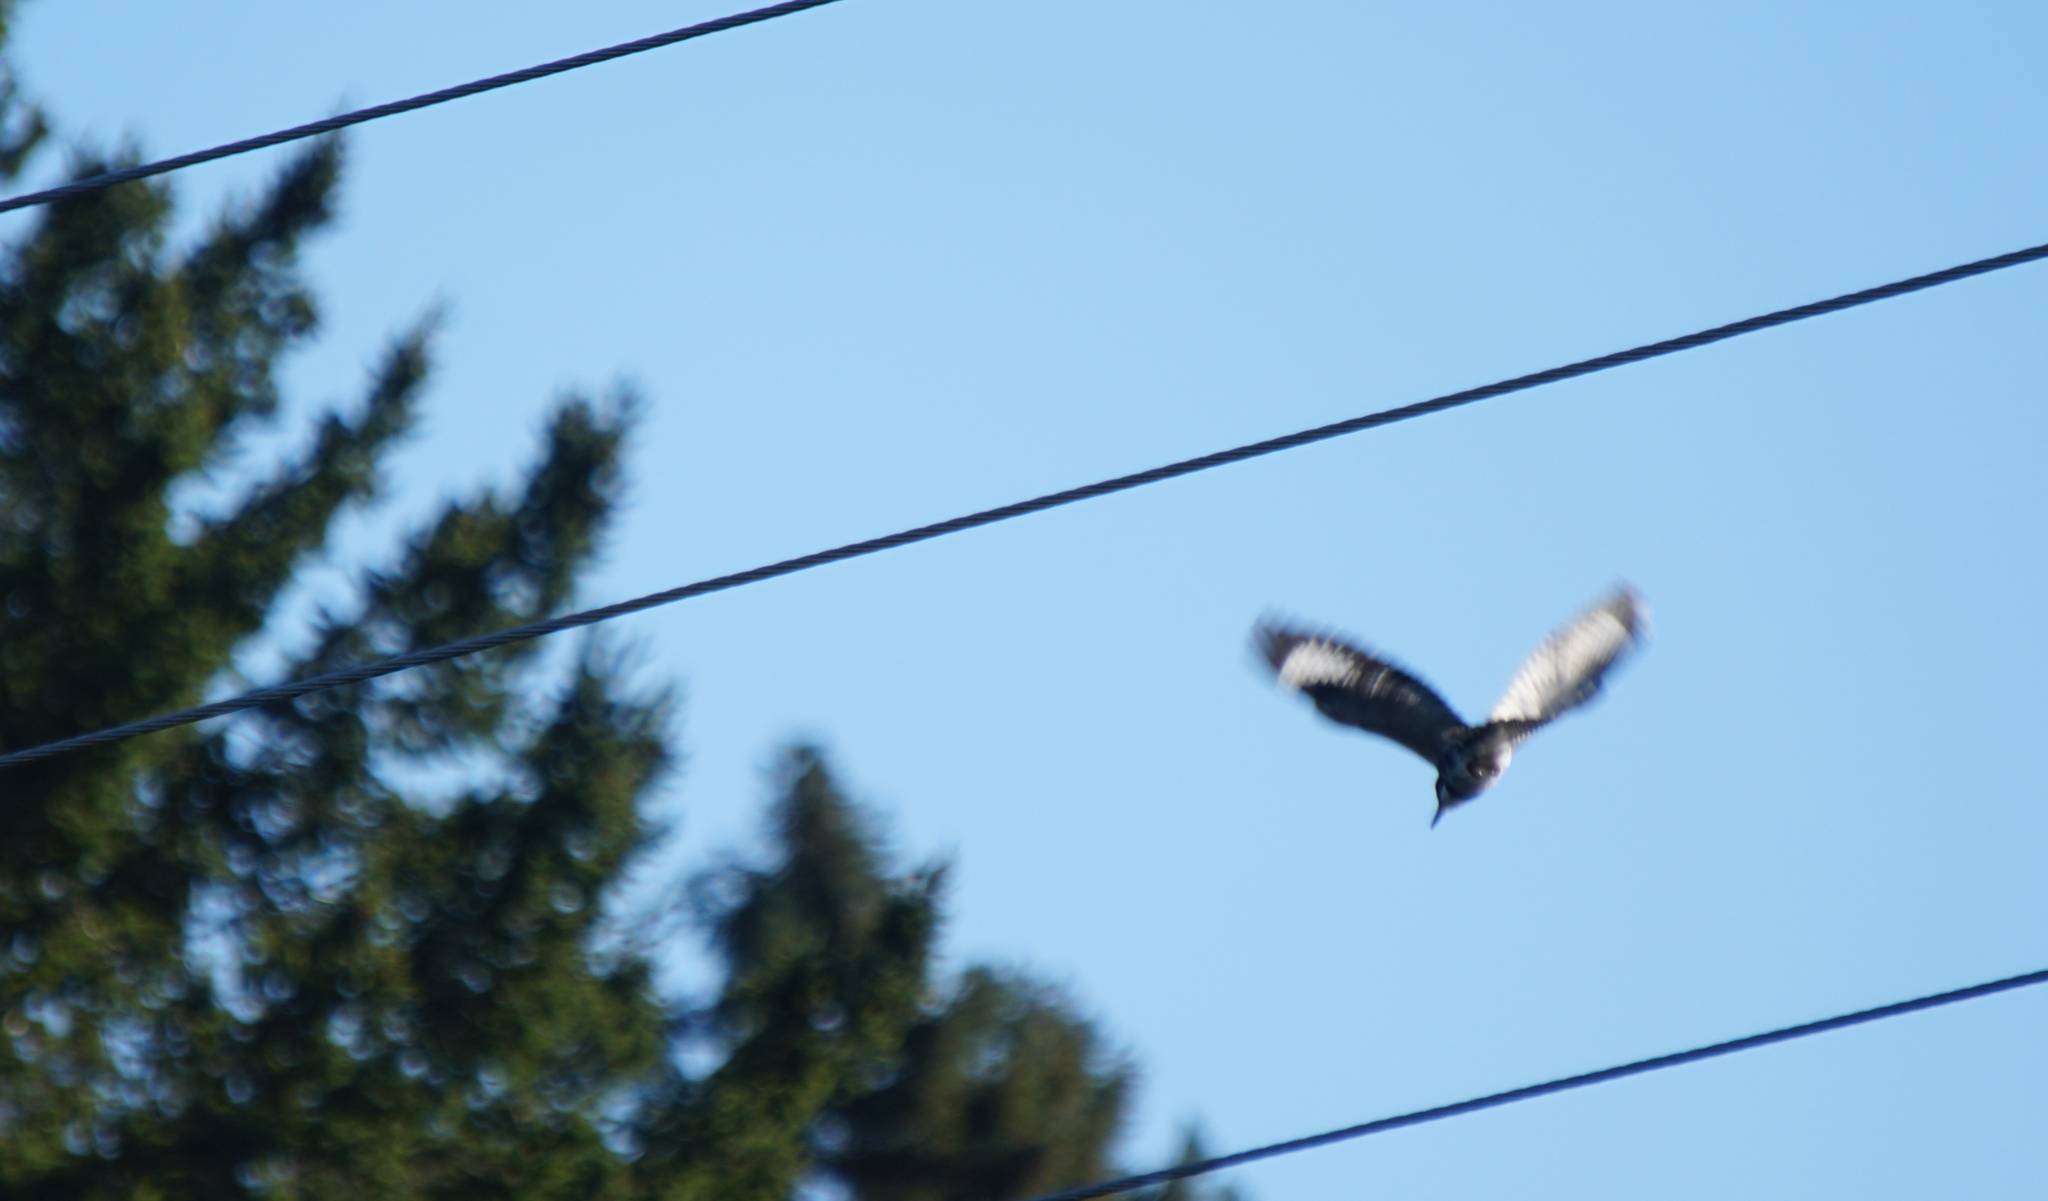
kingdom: Animalia
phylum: Chordata
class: Aves
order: Coraciiformes
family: Alcedinidae
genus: Megaceryle
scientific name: Megaceryle alcyon
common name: Belted kingfisher
